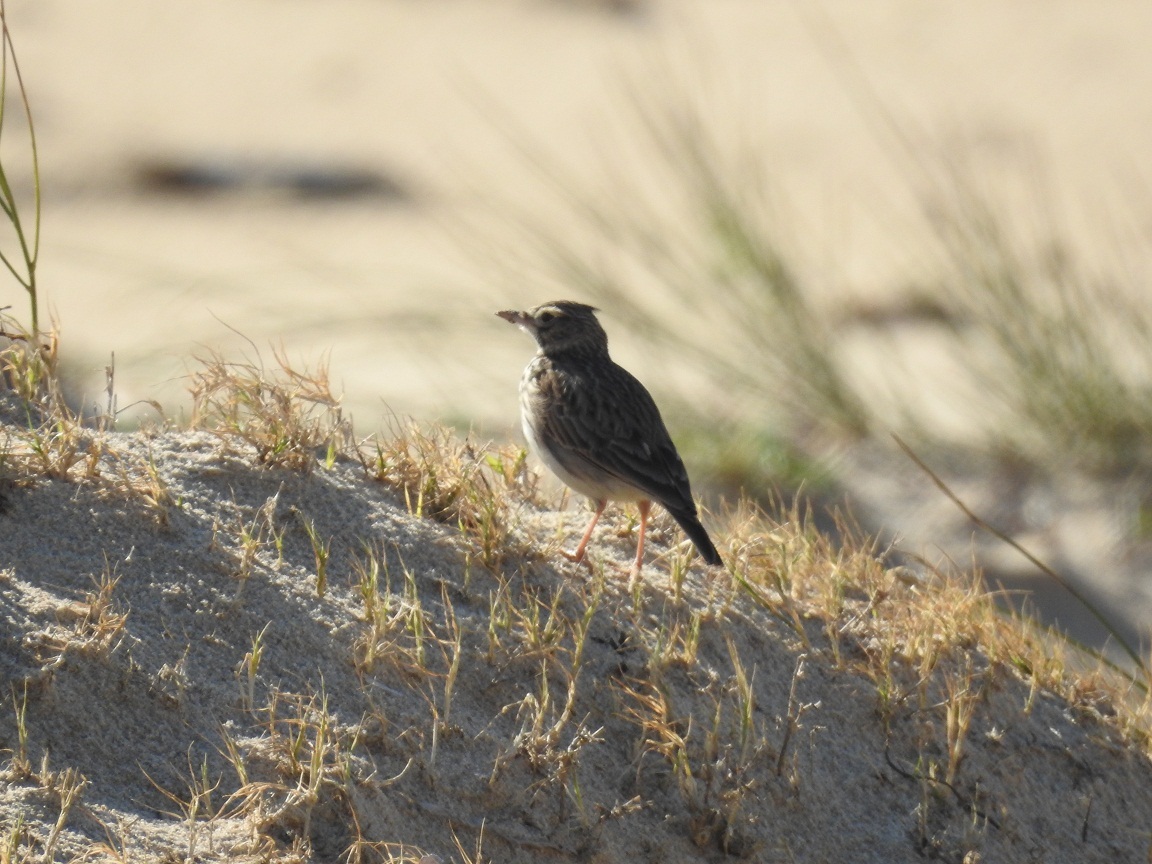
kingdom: Animalia
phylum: Chordata
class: Aves
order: Passeriformes
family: Alaudidae
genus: Galerida
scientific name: Galerida cristata
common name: Crested lark
